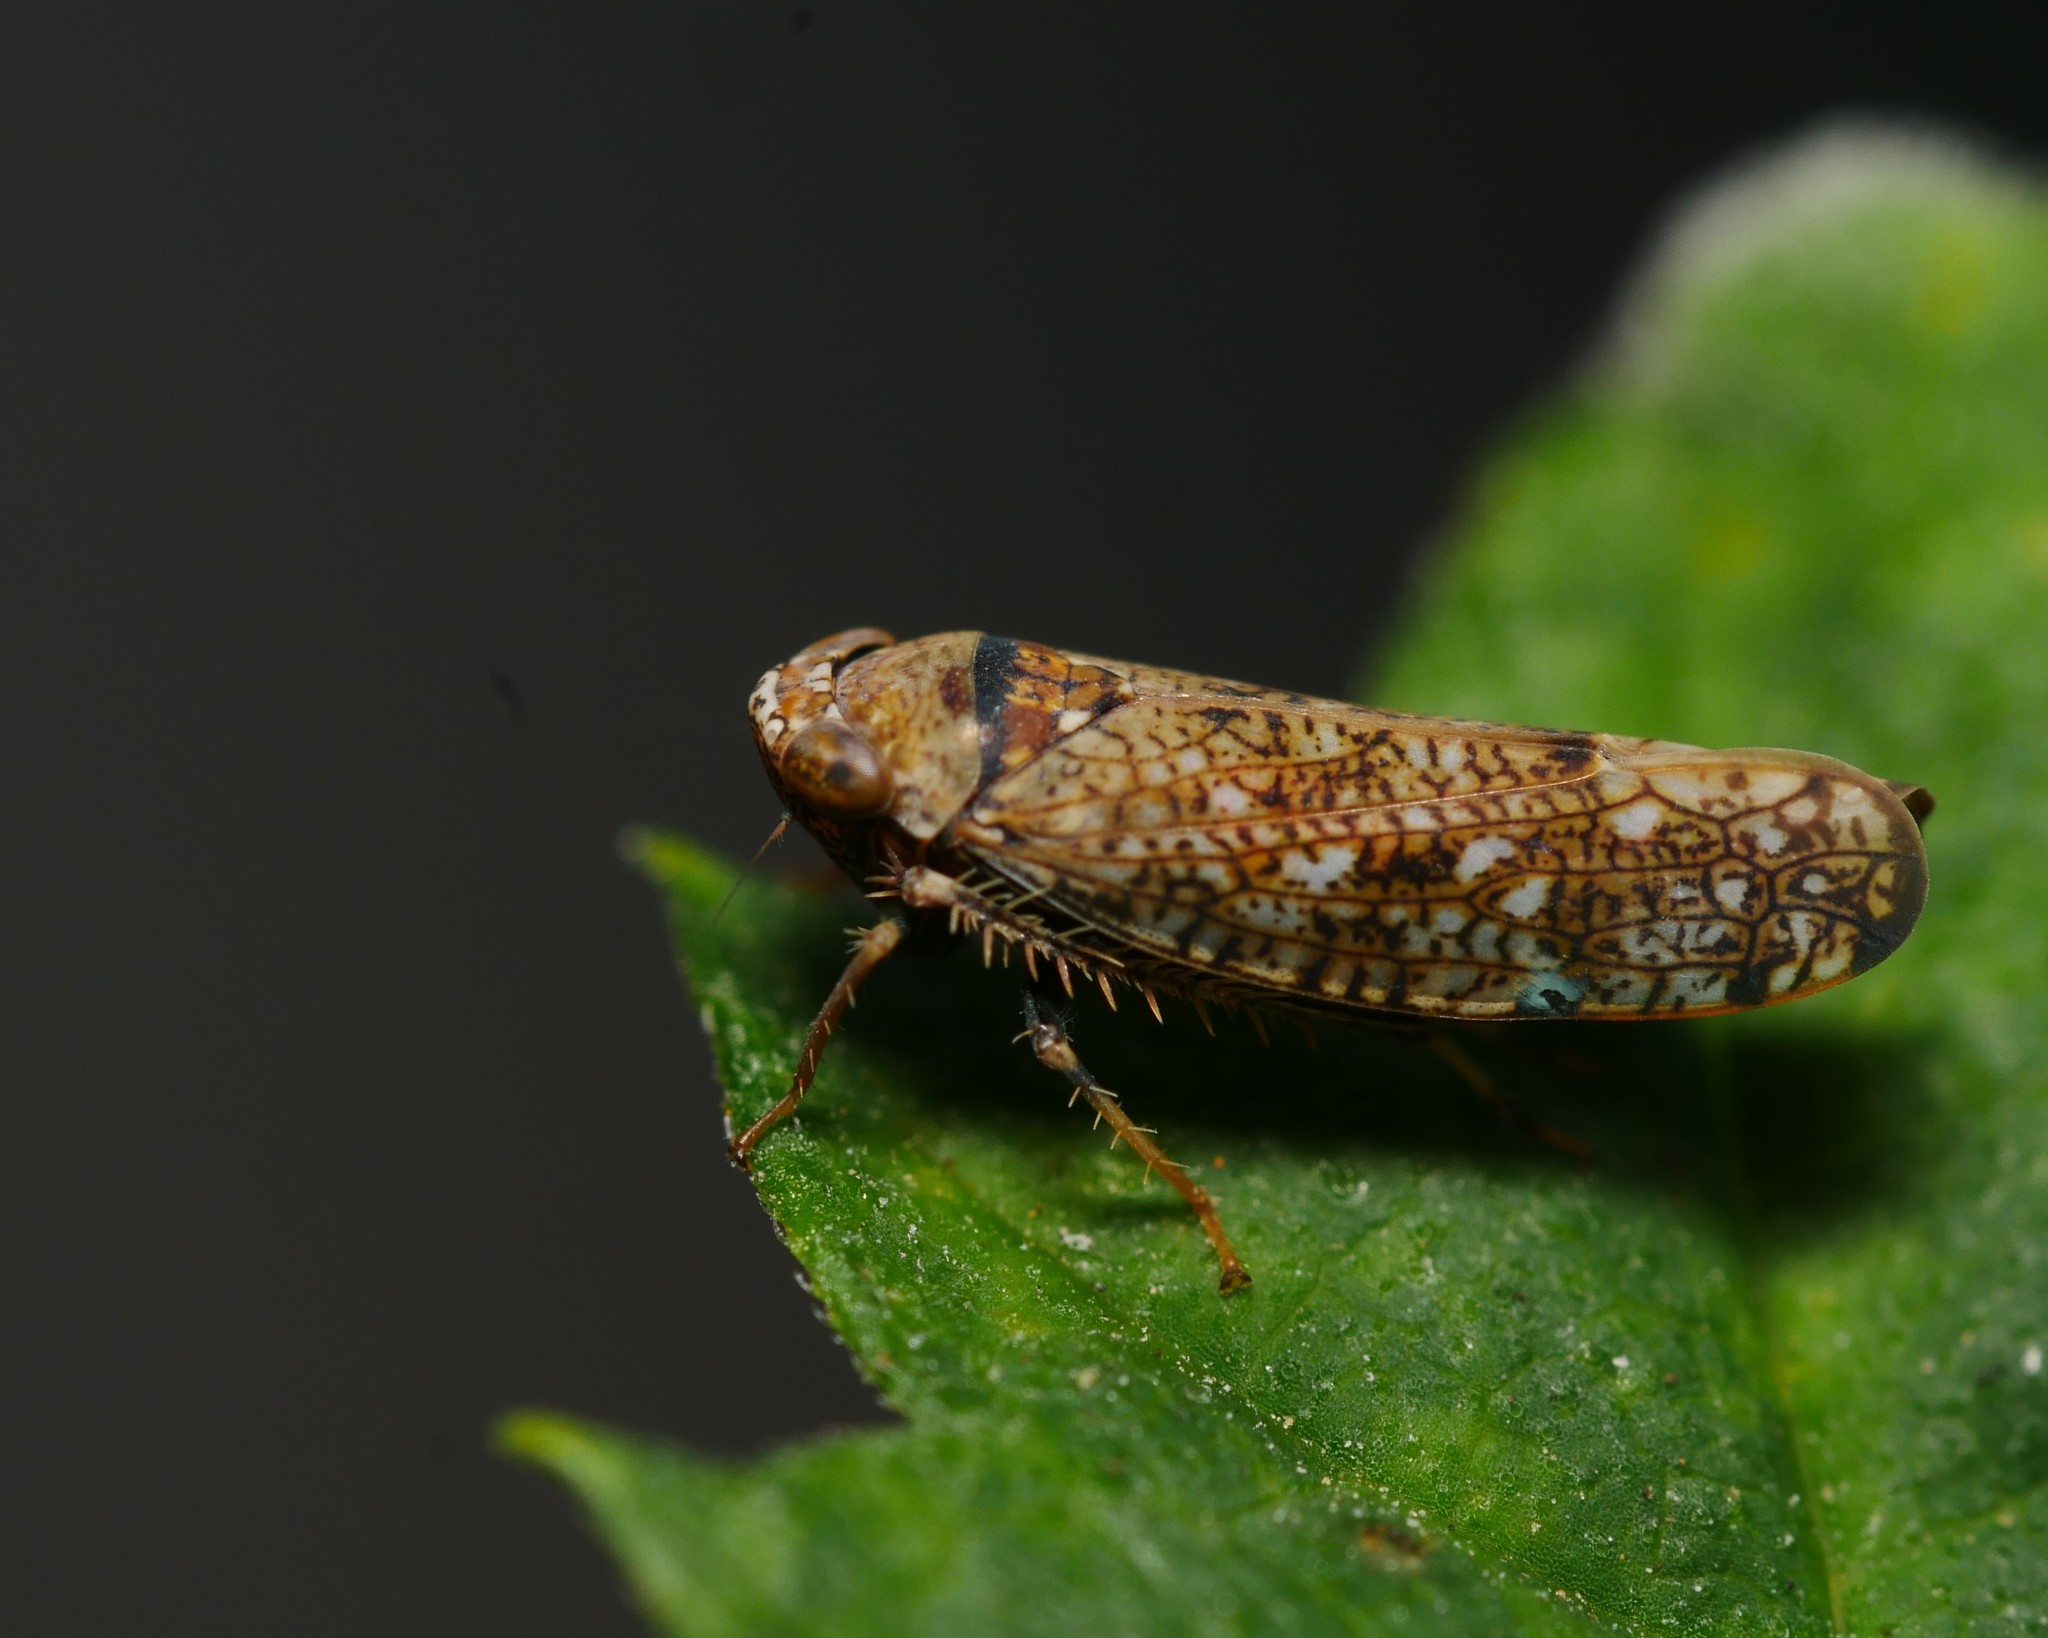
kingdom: Animalia
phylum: Arthropoda
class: Insecta
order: Hemiptera
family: Cicadellidae
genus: Orientus
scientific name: Orientus ishidae
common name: Japanese leafhopper
